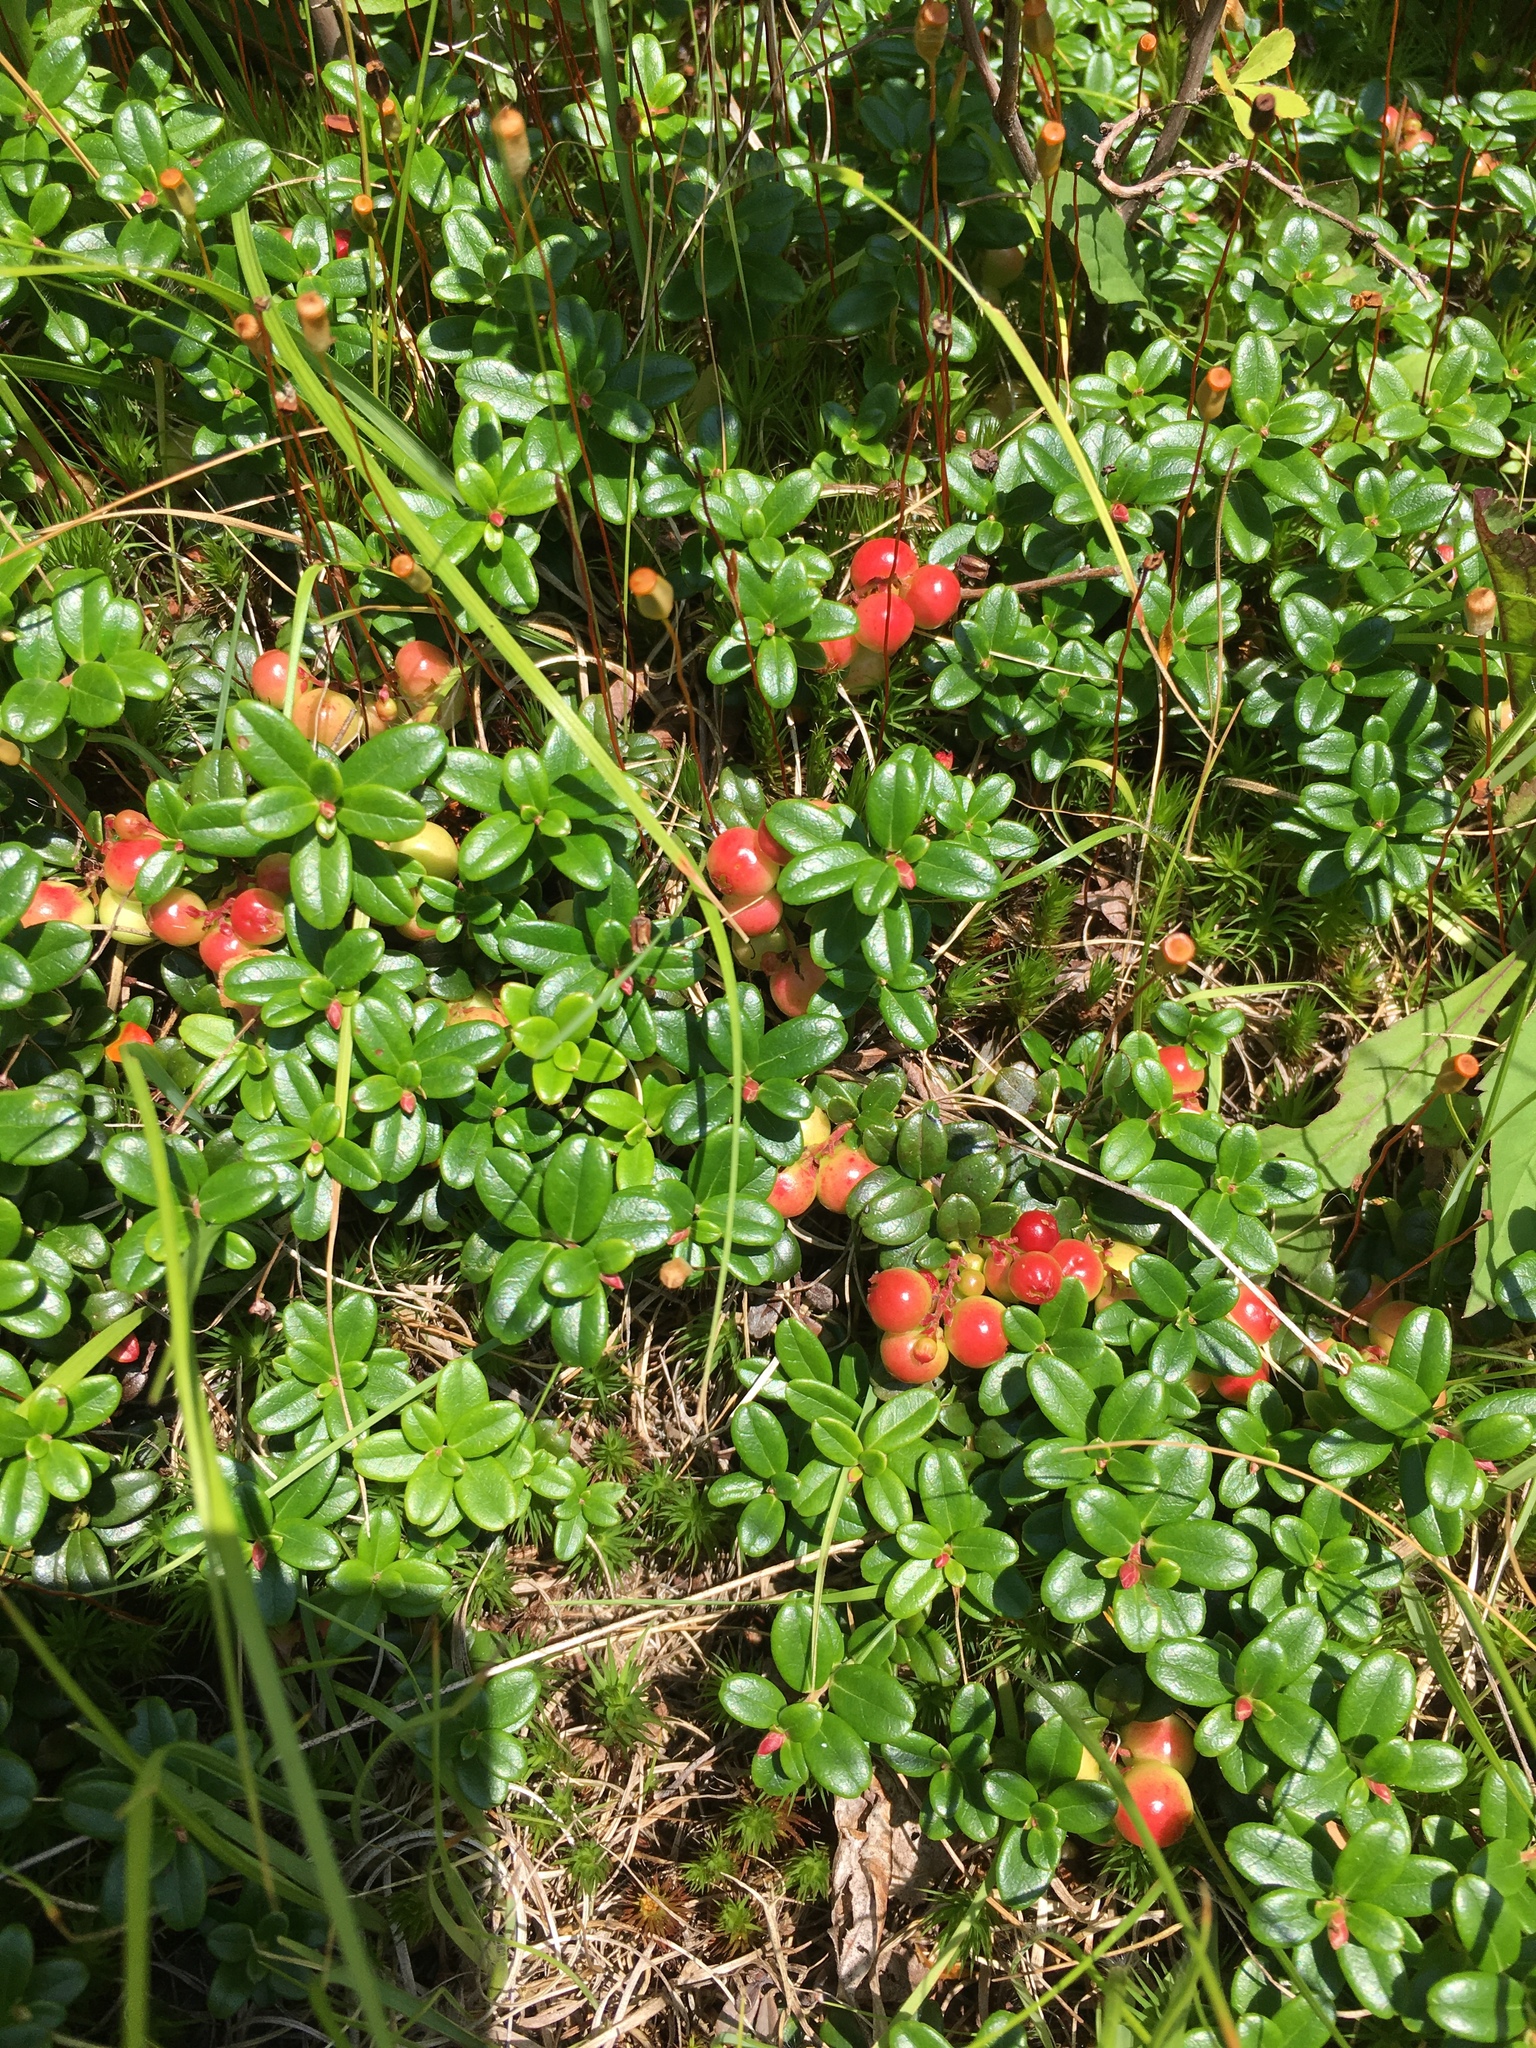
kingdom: Plantae
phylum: Tracheophyta
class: Magnoliopsida
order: Ericales
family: Ericaceae
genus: Vaccinium
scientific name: Vaccinium vitis-idaea
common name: Cowberry
